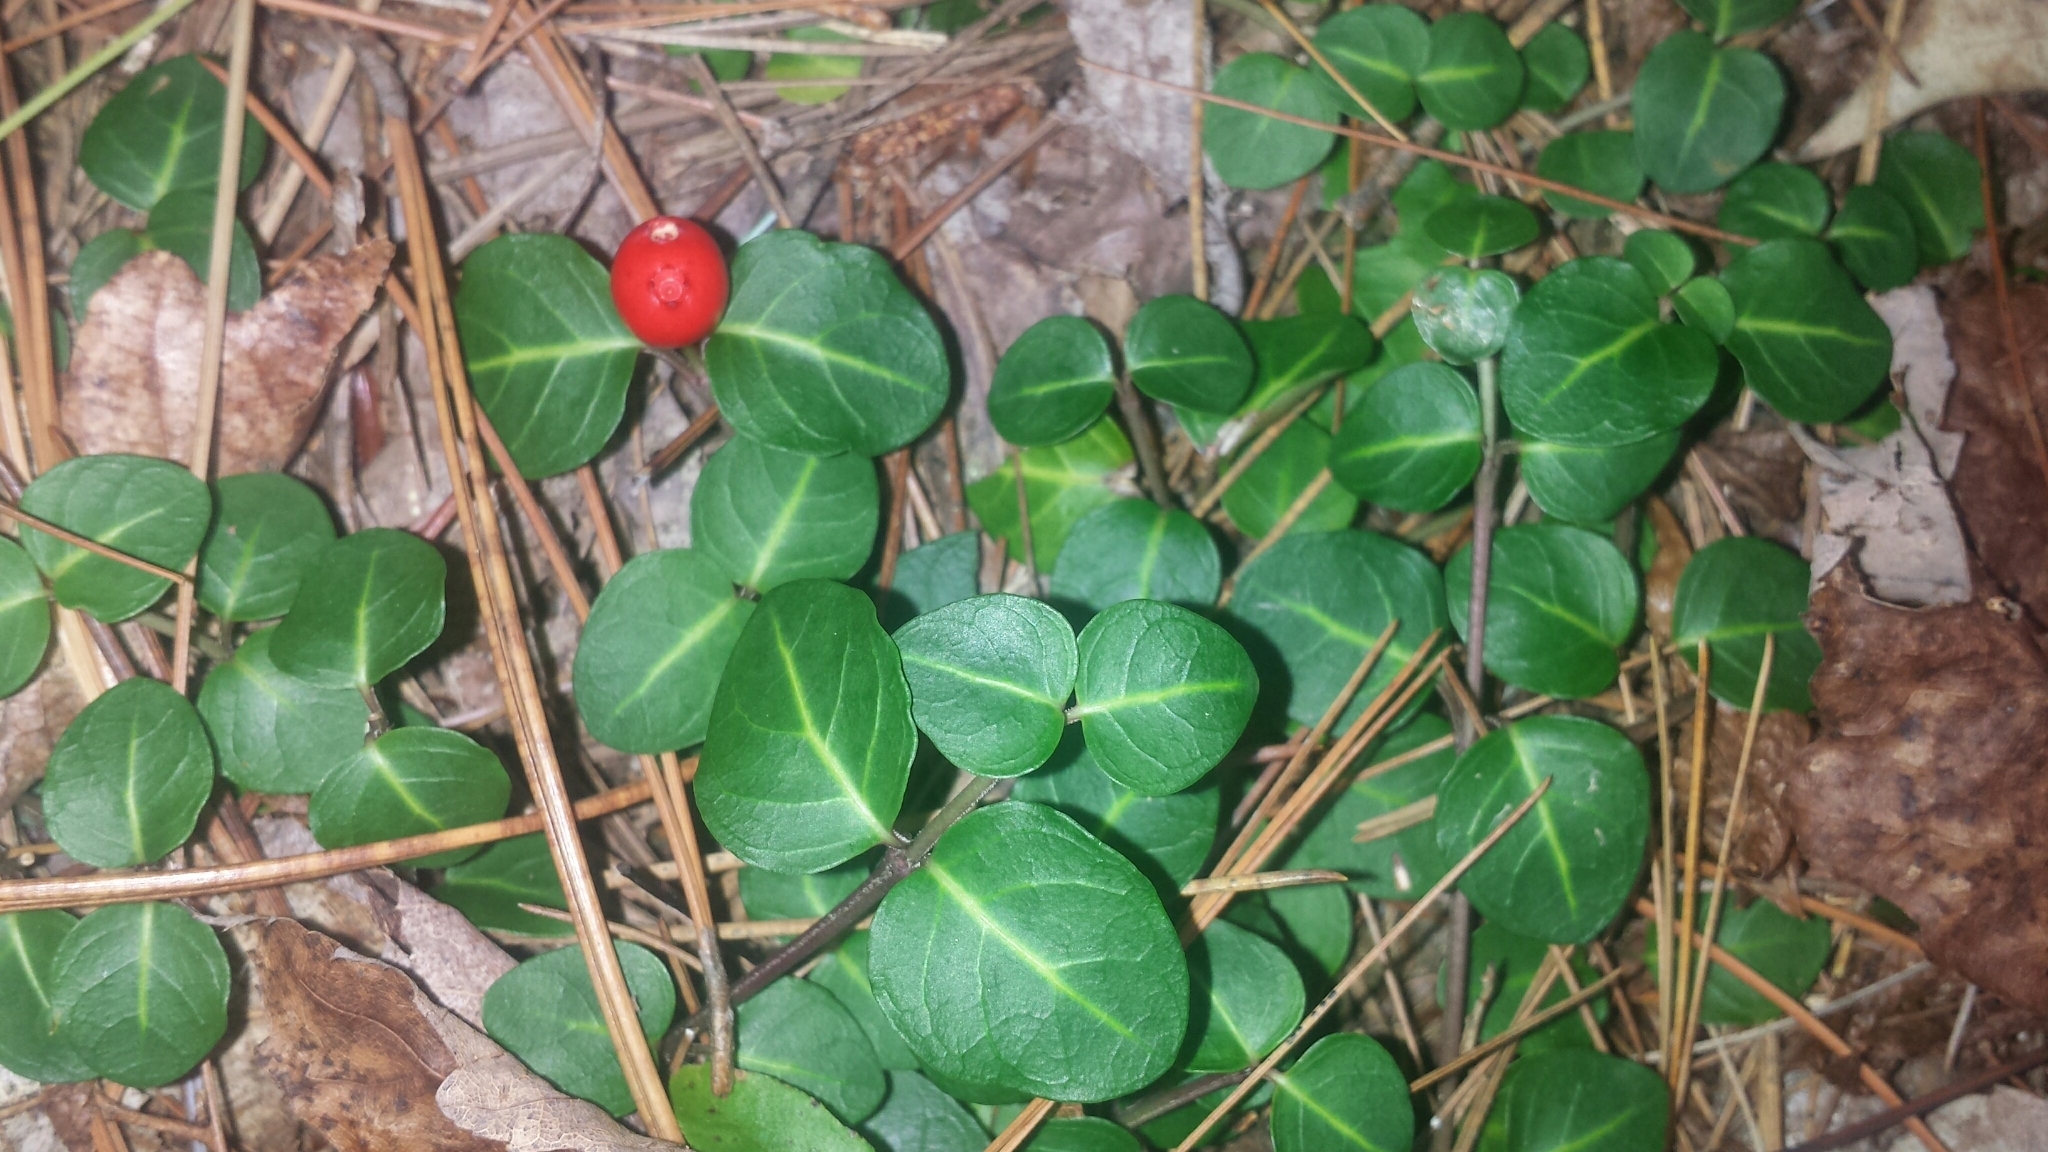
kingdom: Plantae
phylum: Tracheophyta
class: Magnoliopsida
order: Gentianales
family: Rubiaceae
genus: Mitchella
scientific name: Mitchella repens
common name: Partridge-berry
